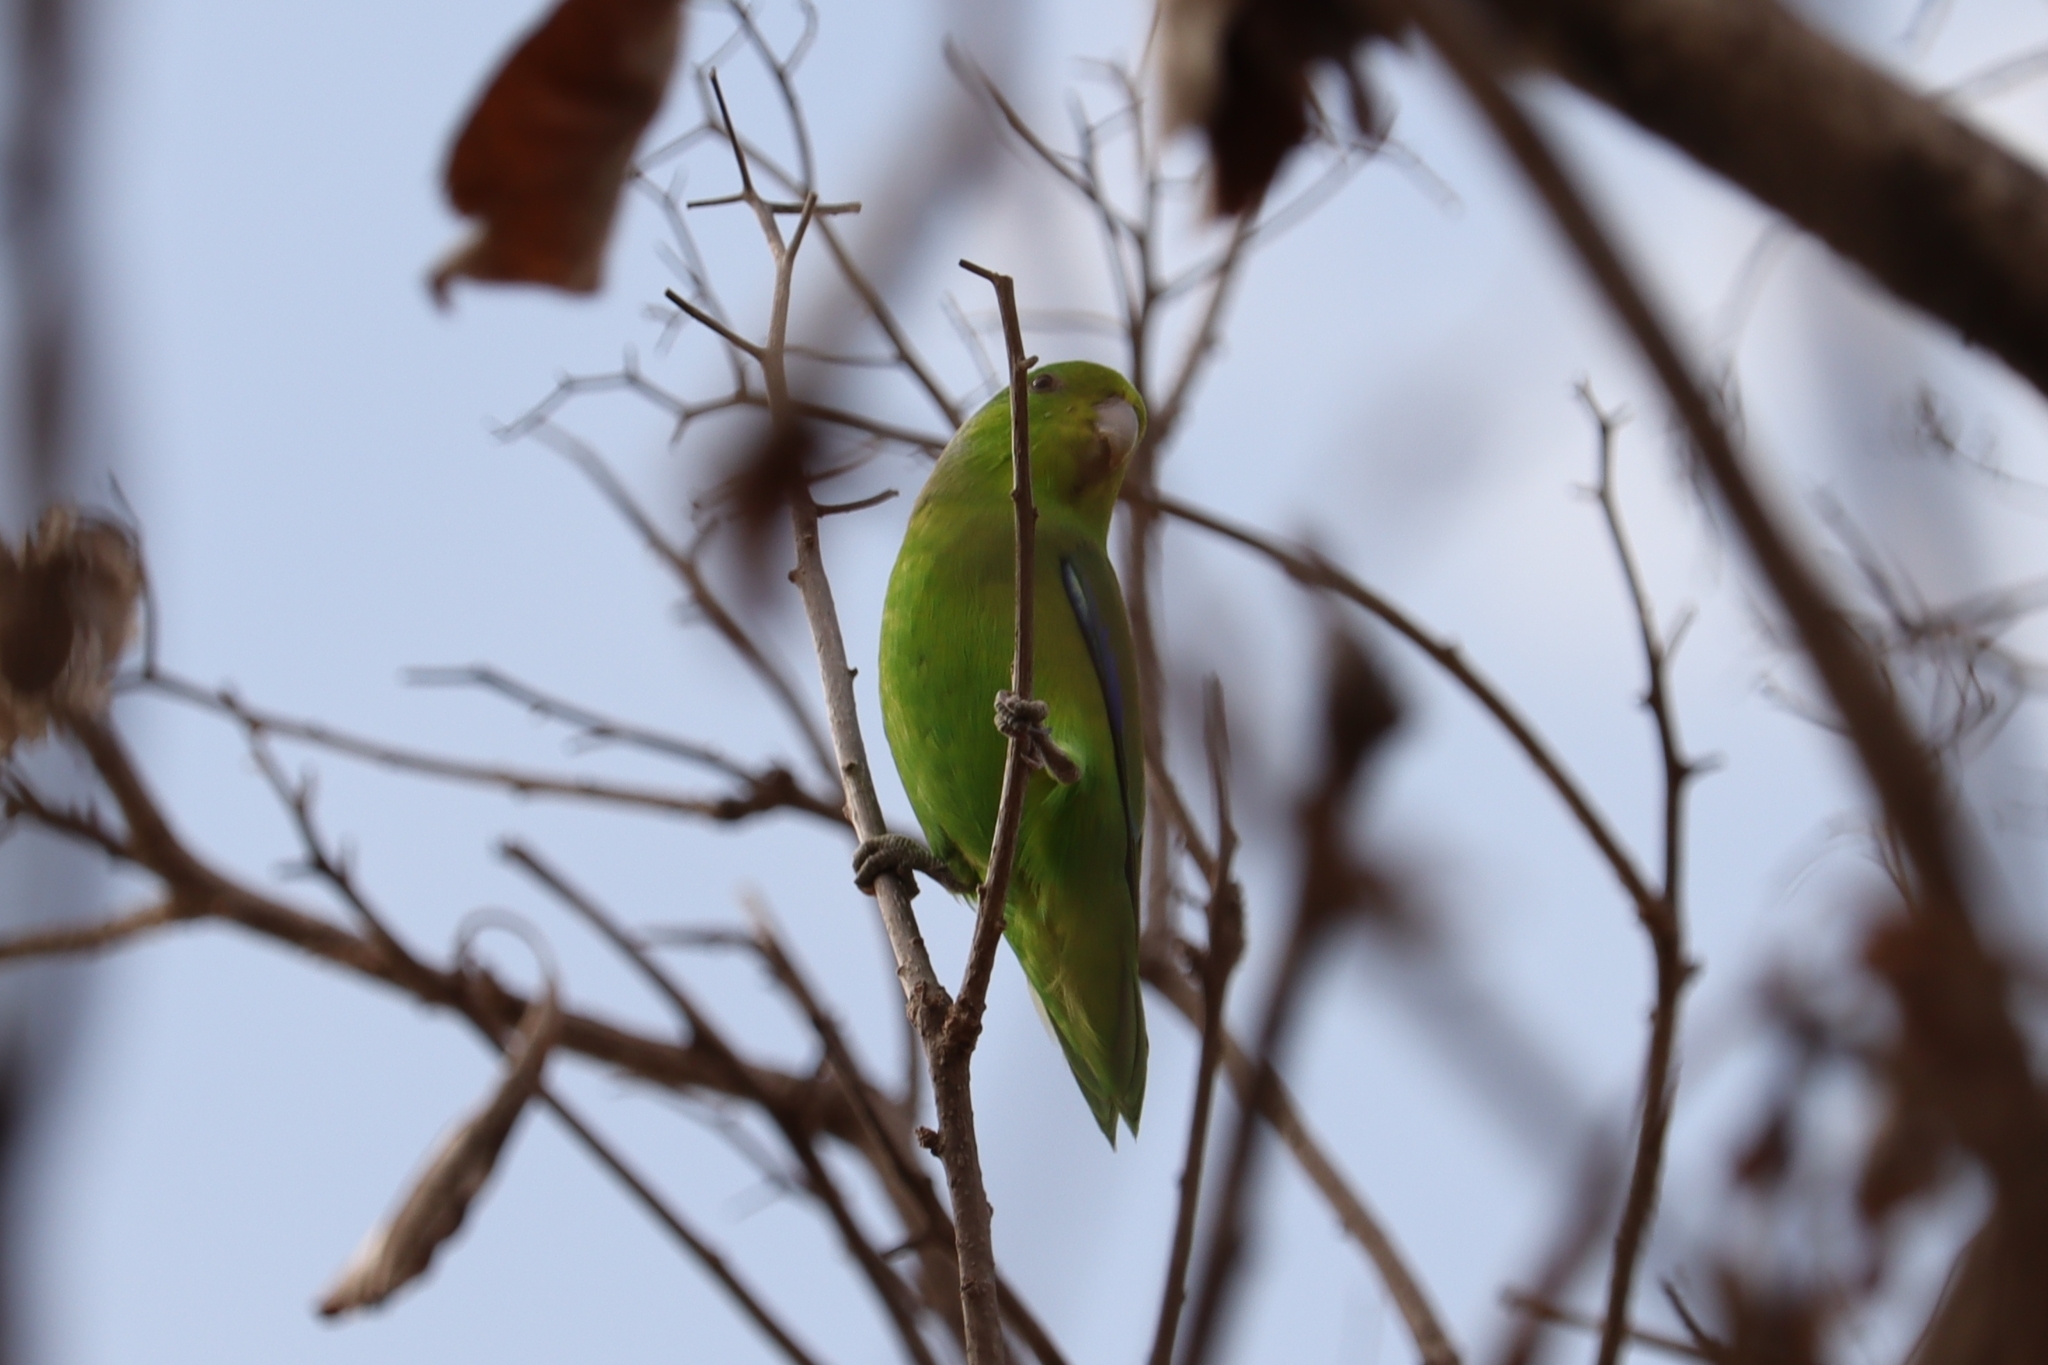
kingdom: Animalia
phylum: Chordata
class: Aves
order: Psittaciformes
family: Psittacidae
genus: Forpus
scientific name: Forpus xanthopterygius
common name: Blue-winged parrotlet
